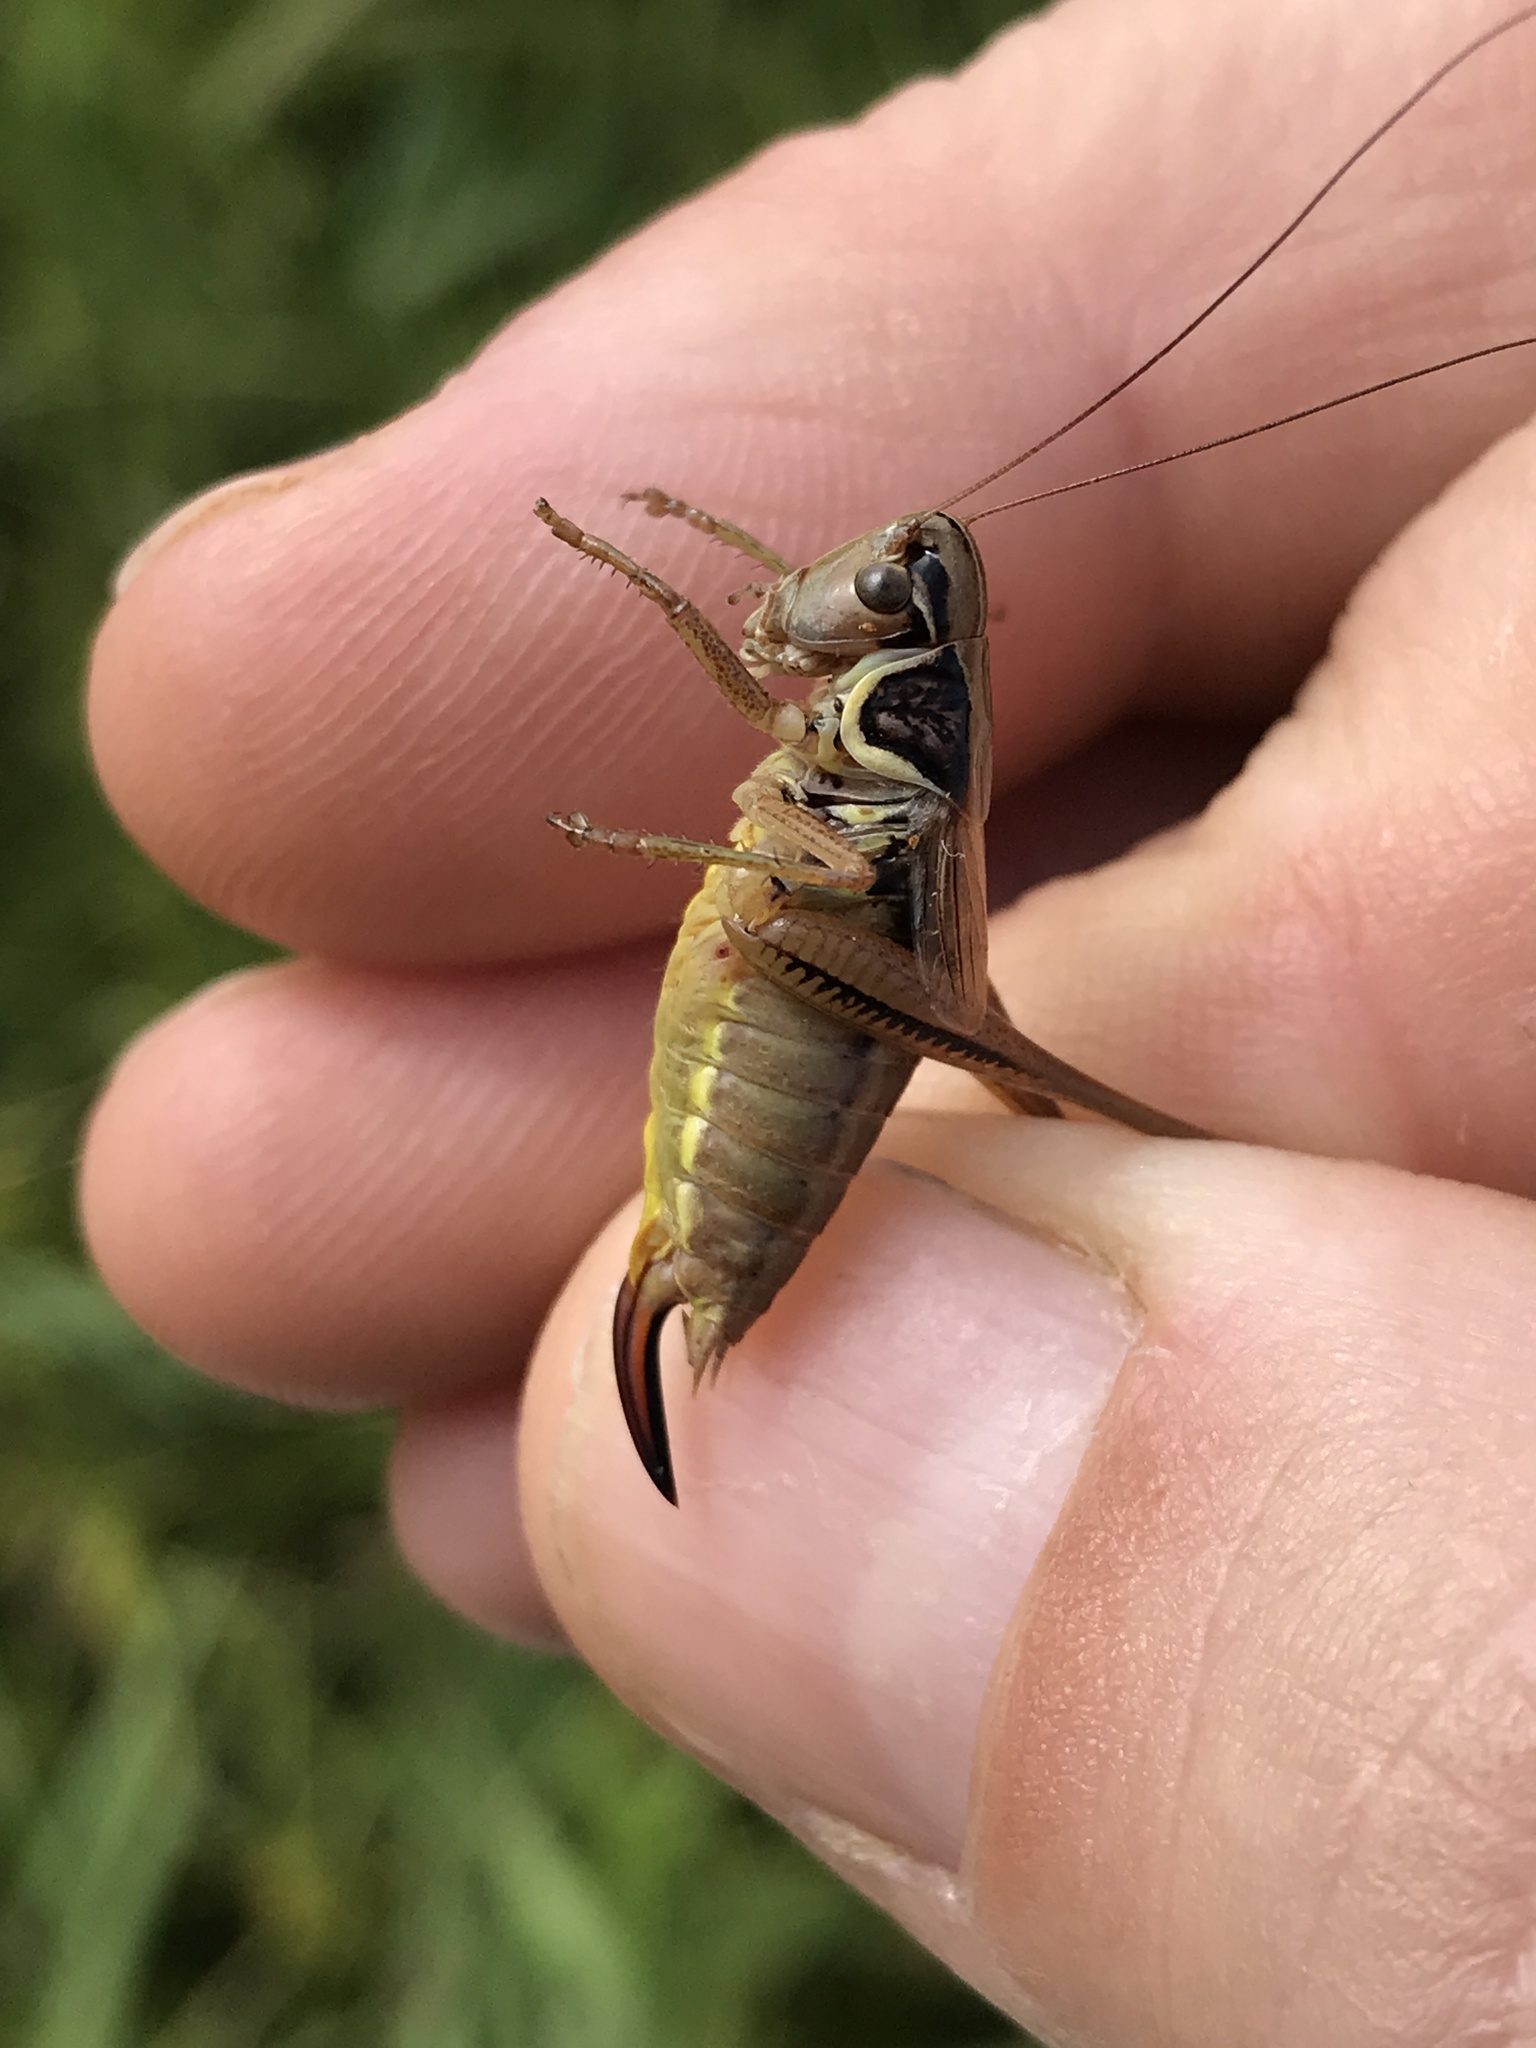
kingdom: Animalia
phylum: Arthropoda
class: Insecta
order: Orthoptera
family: Tettigoniidae
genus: Roeseliana
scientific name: Roeseliana roeselii
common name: Roesel's bush cricket
